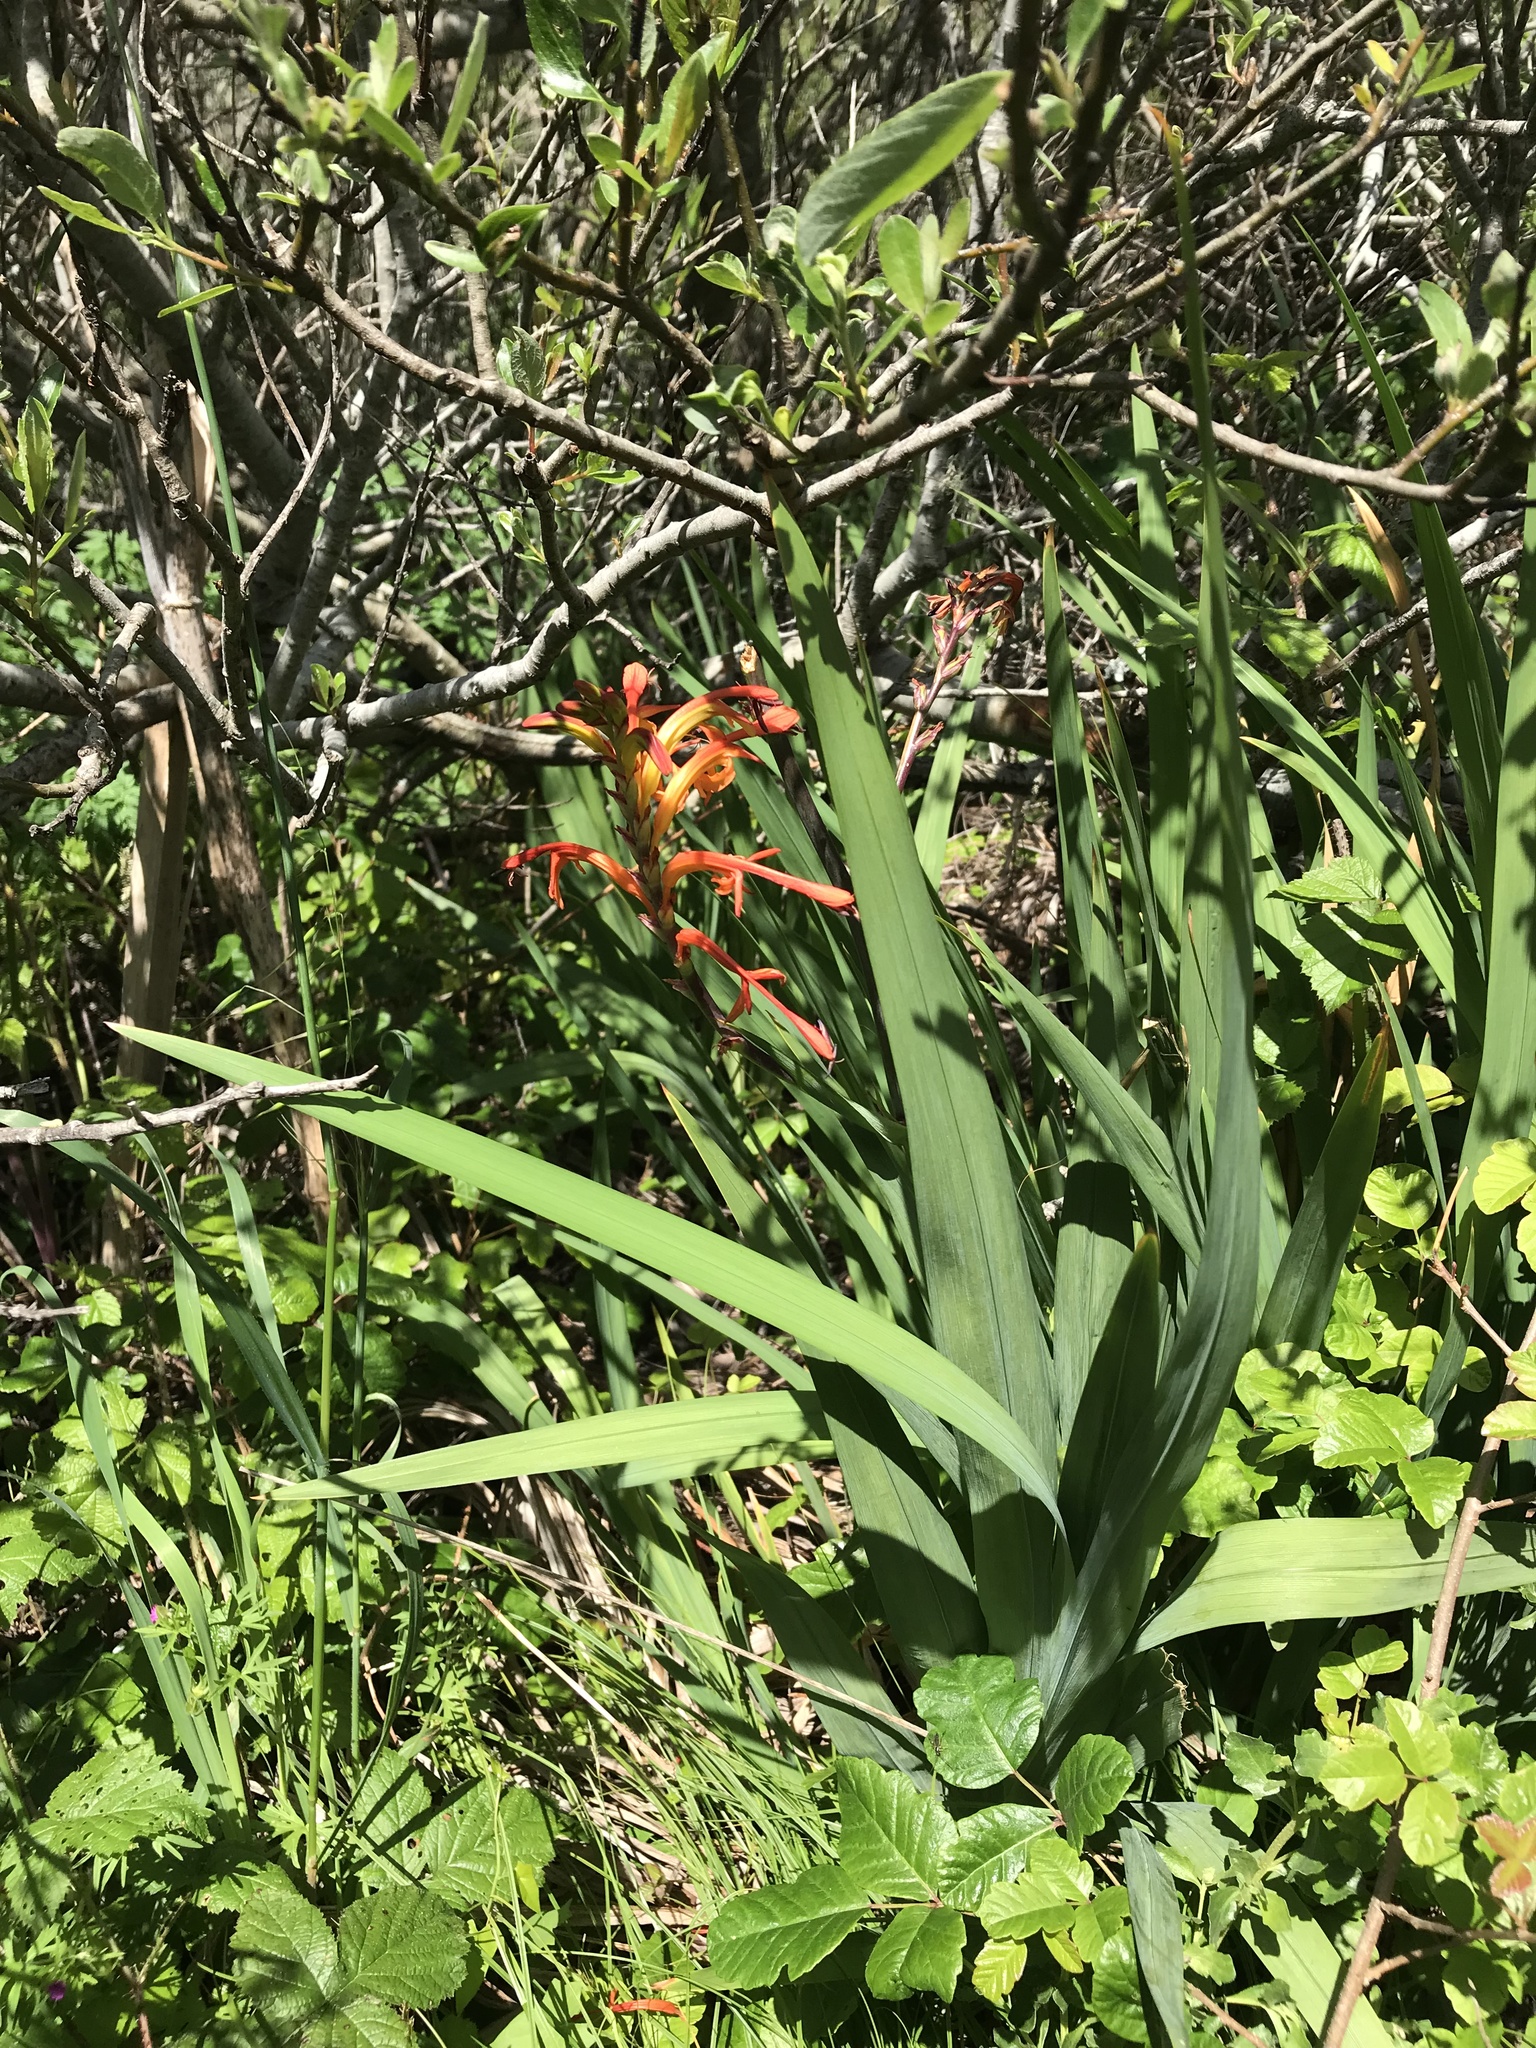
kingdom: Plantae
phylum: Tracheophyta
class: Liliopsida
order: Asparagales
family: Iridaceae
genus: Chasmanthe
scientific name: Chasmanthe floribunda
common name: African cornflag
